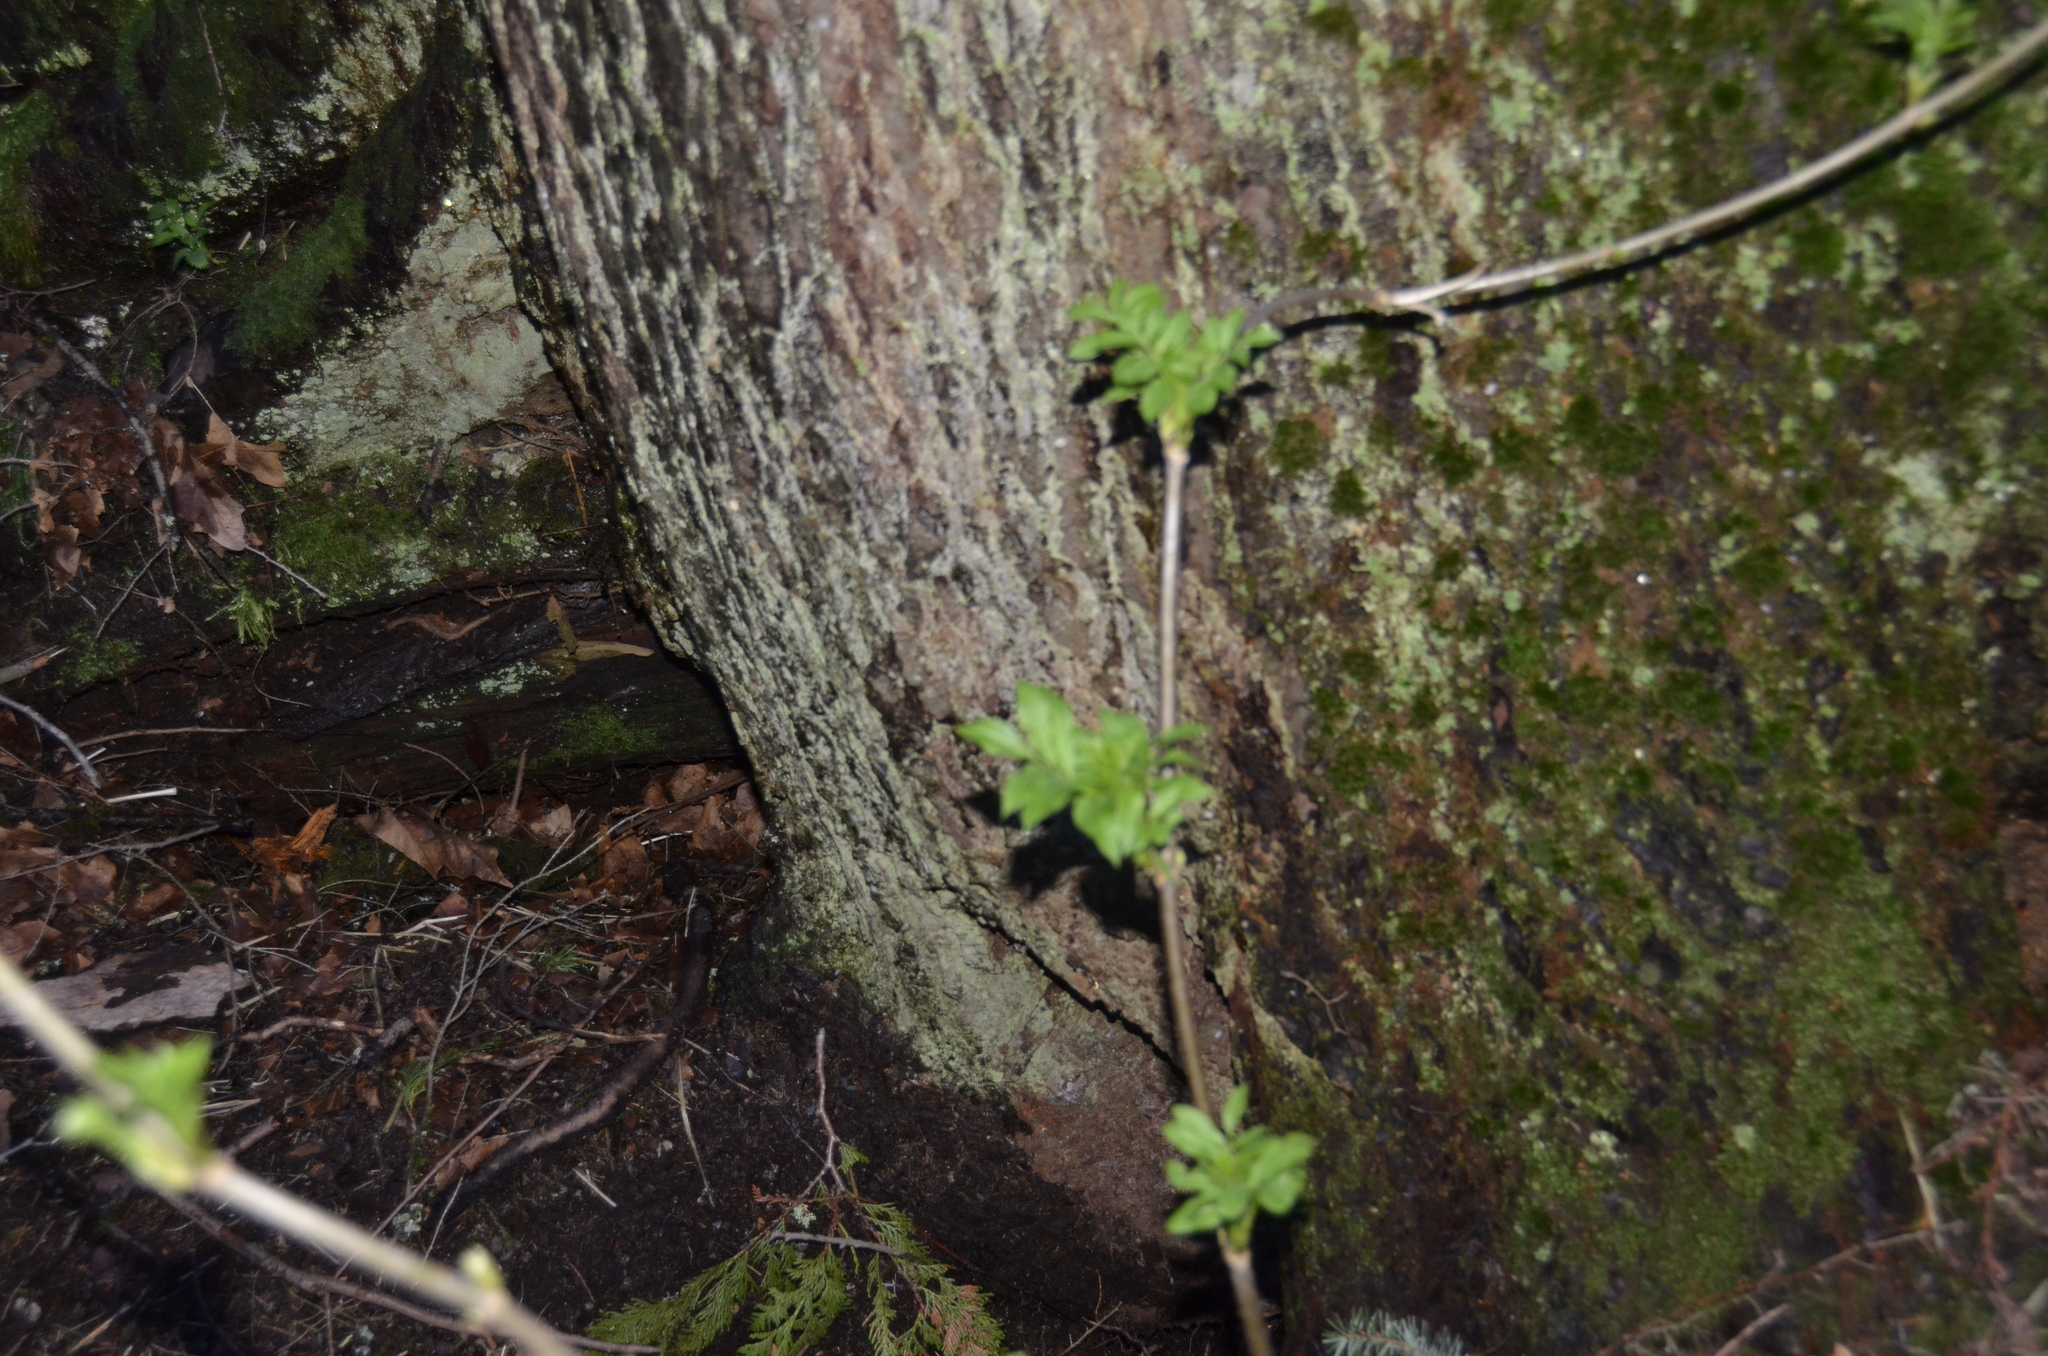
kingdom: Plantae
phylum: Tracheophyta
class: Magnoliopsida
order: Dipsacales
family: Viburnaceae
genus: Sambucus
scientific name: Sambucus racemosa
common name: Red-berried elder
